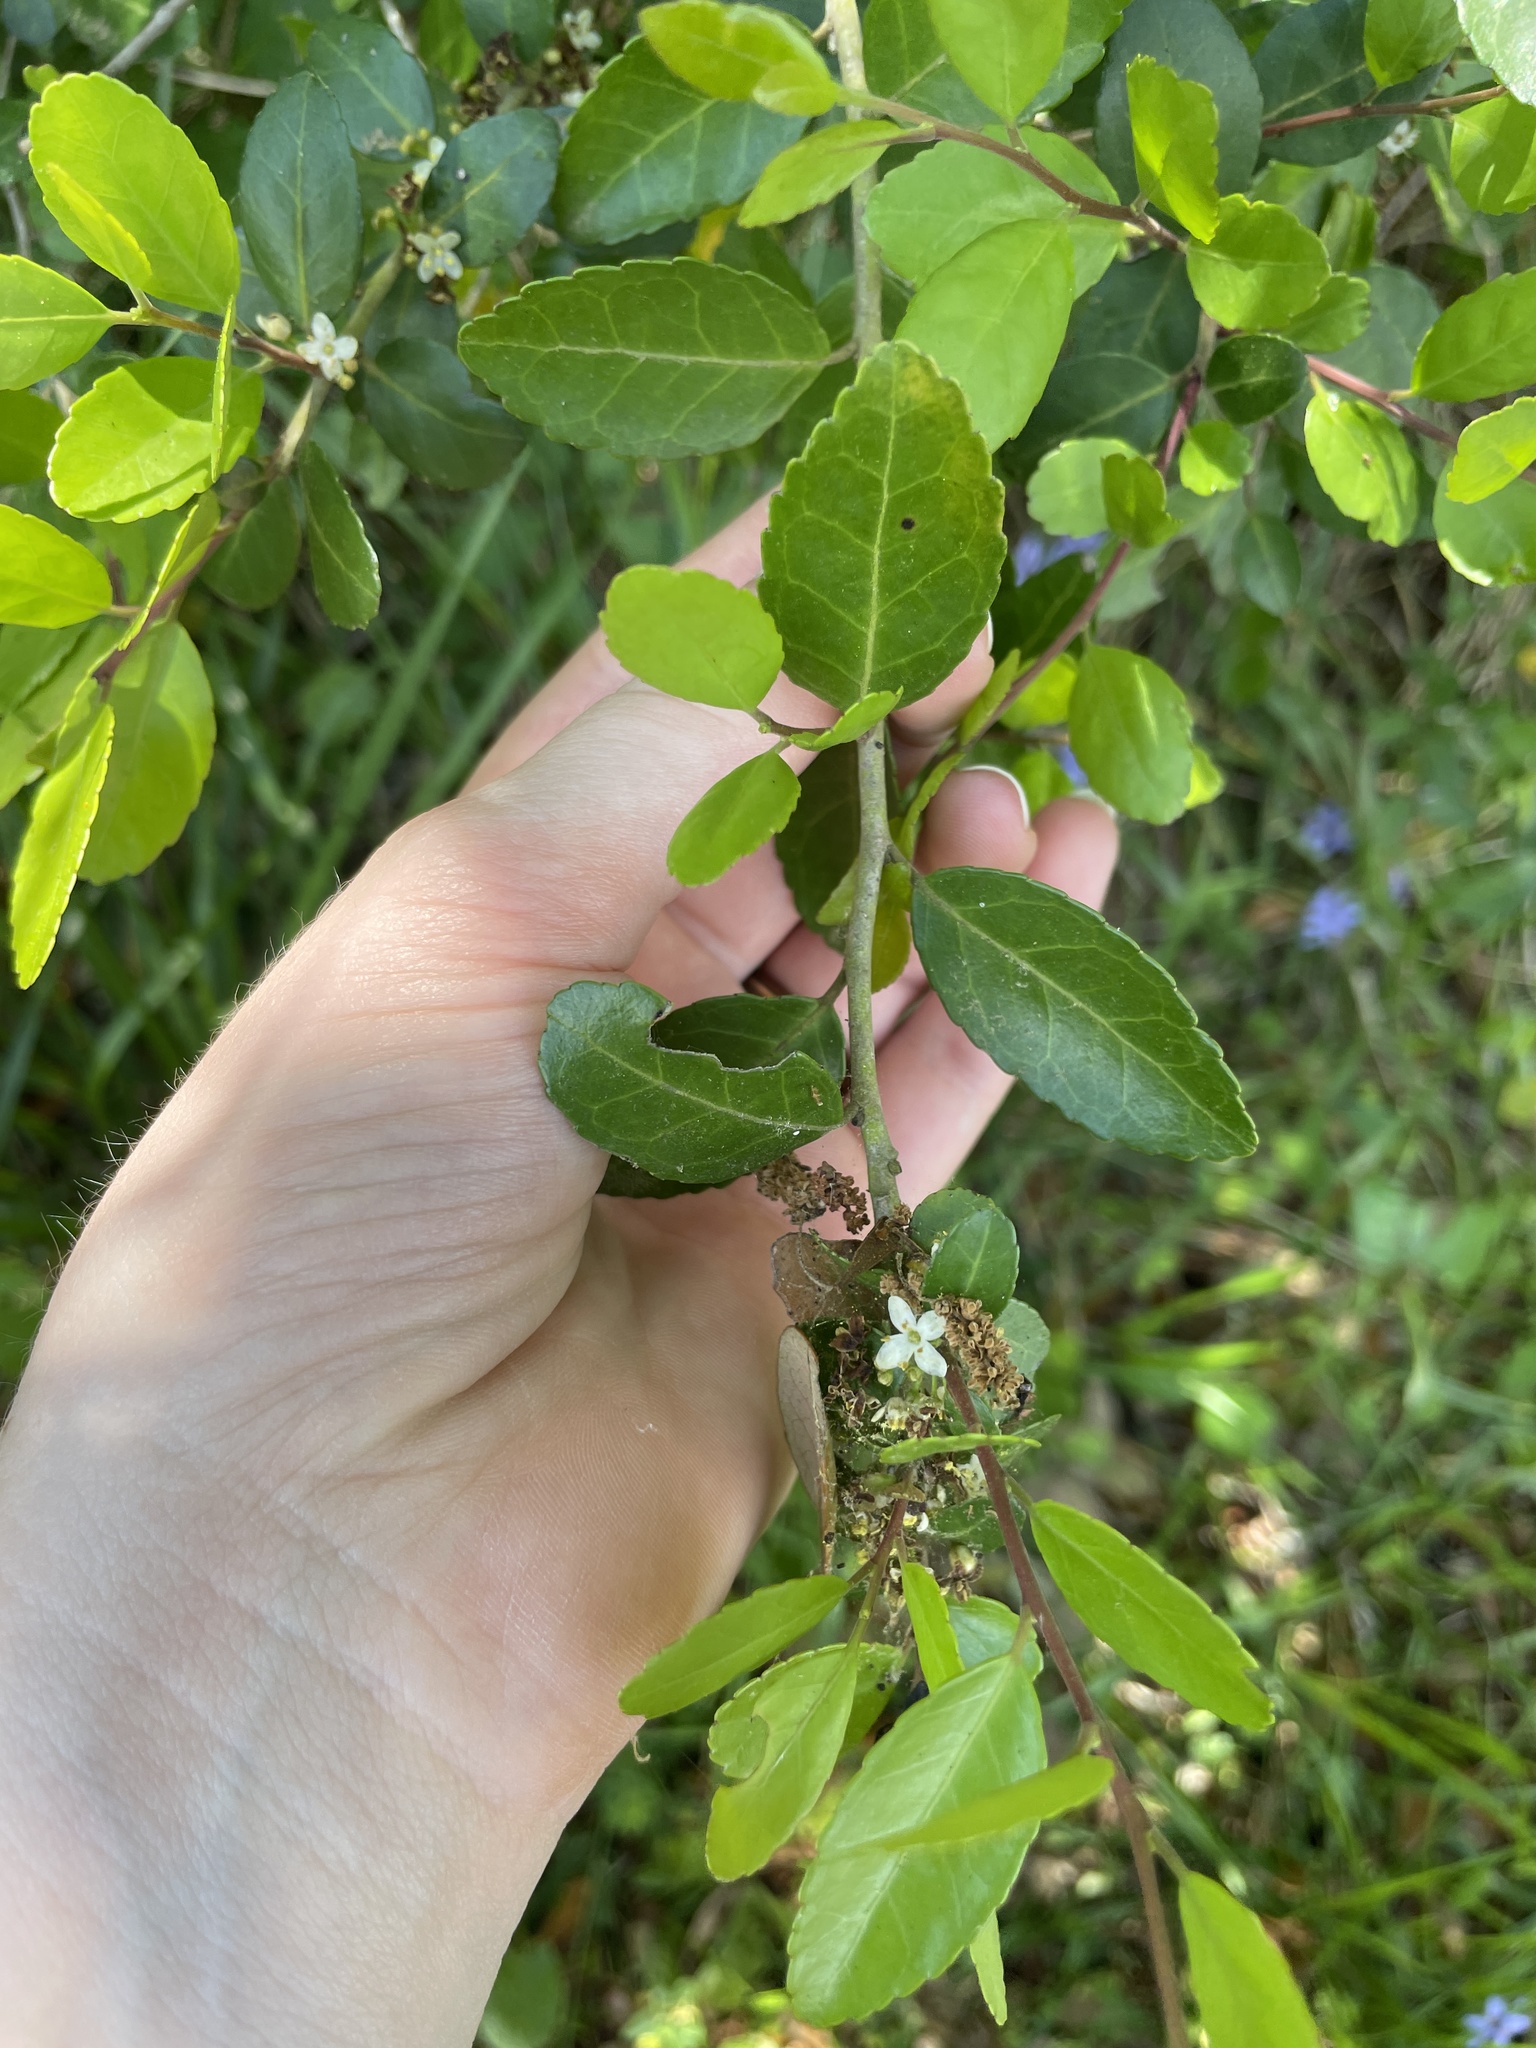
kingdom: Plantae
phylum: Tracheophyta
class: Magnoliopsida
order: Aquifoliales
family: Aquifoliaceae
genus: Ilex
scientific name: Ilex vomitoria
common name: Yaupon holly
